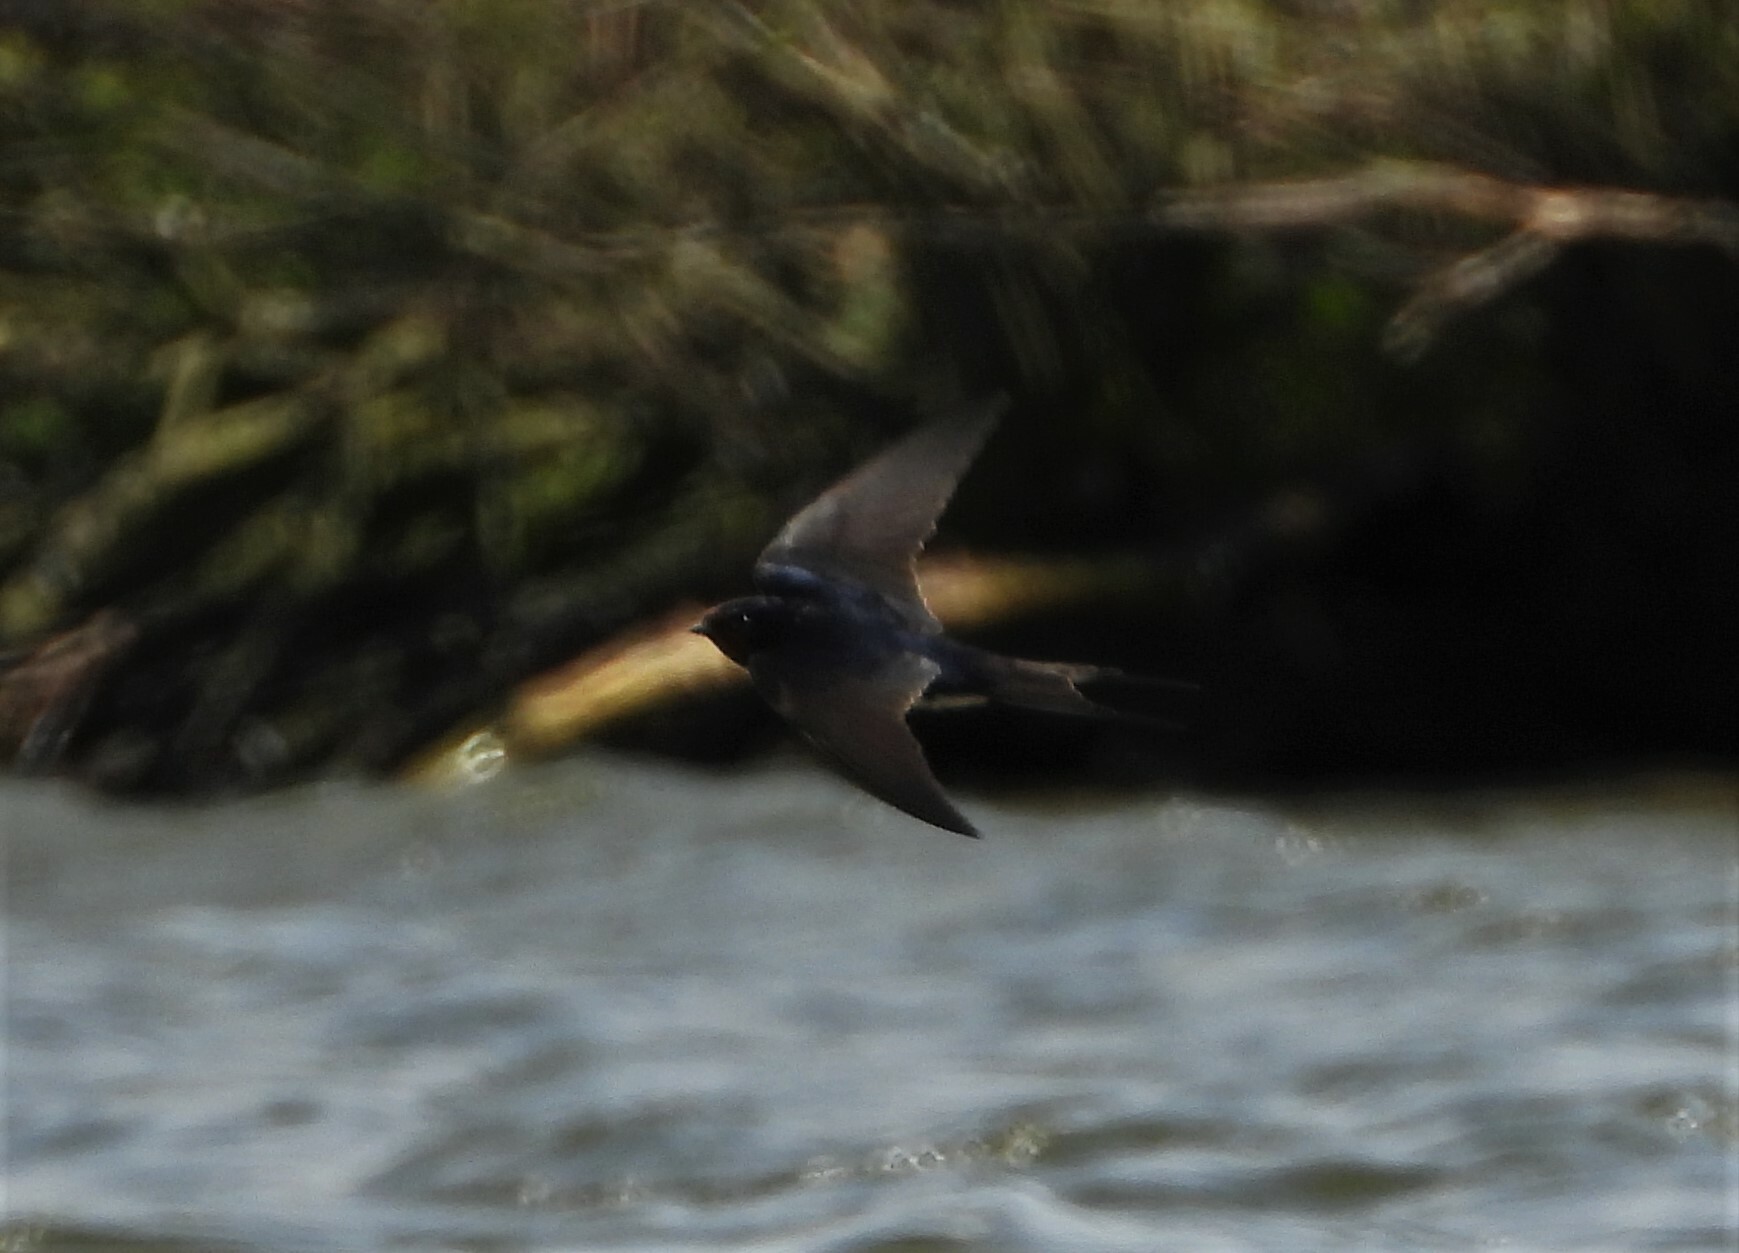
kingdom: Animalia
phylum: Chordata
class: Aves
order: Passeriformes
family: Hirundinidae
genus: Hirundo
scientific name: Hirundo rustica
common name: Barn swallow
